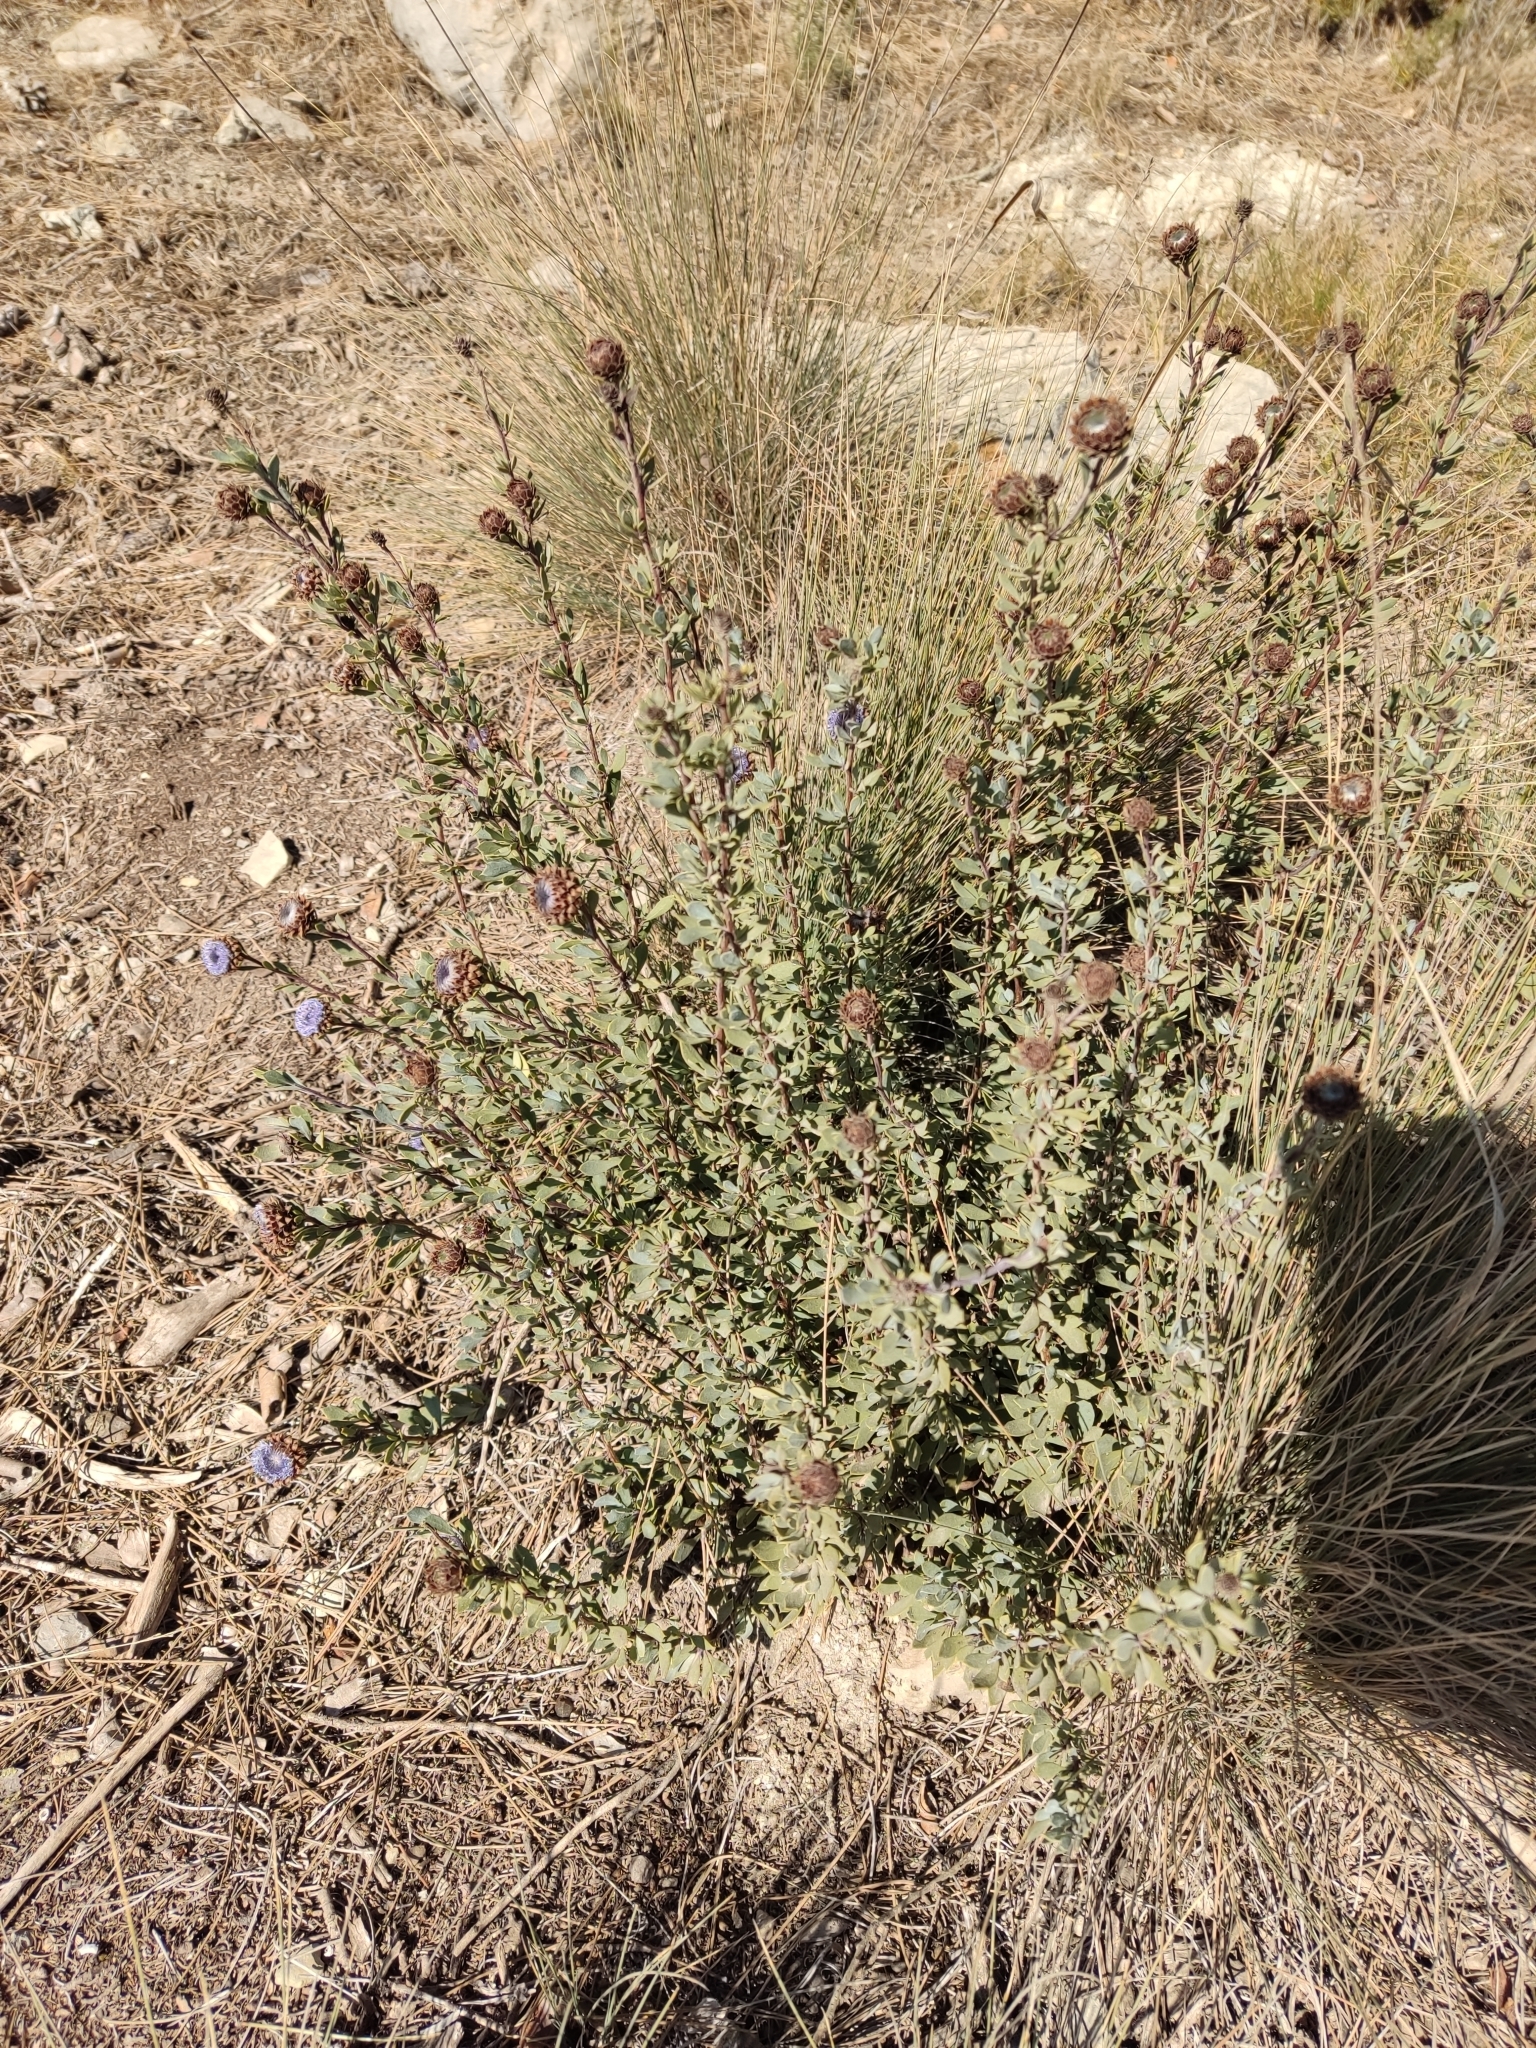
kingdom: Plantae
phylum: Tracheophyta
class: Magnoliopsida
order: Lamiales
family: Plantaginaceae
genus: Globularia
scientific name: Globularia alypum
